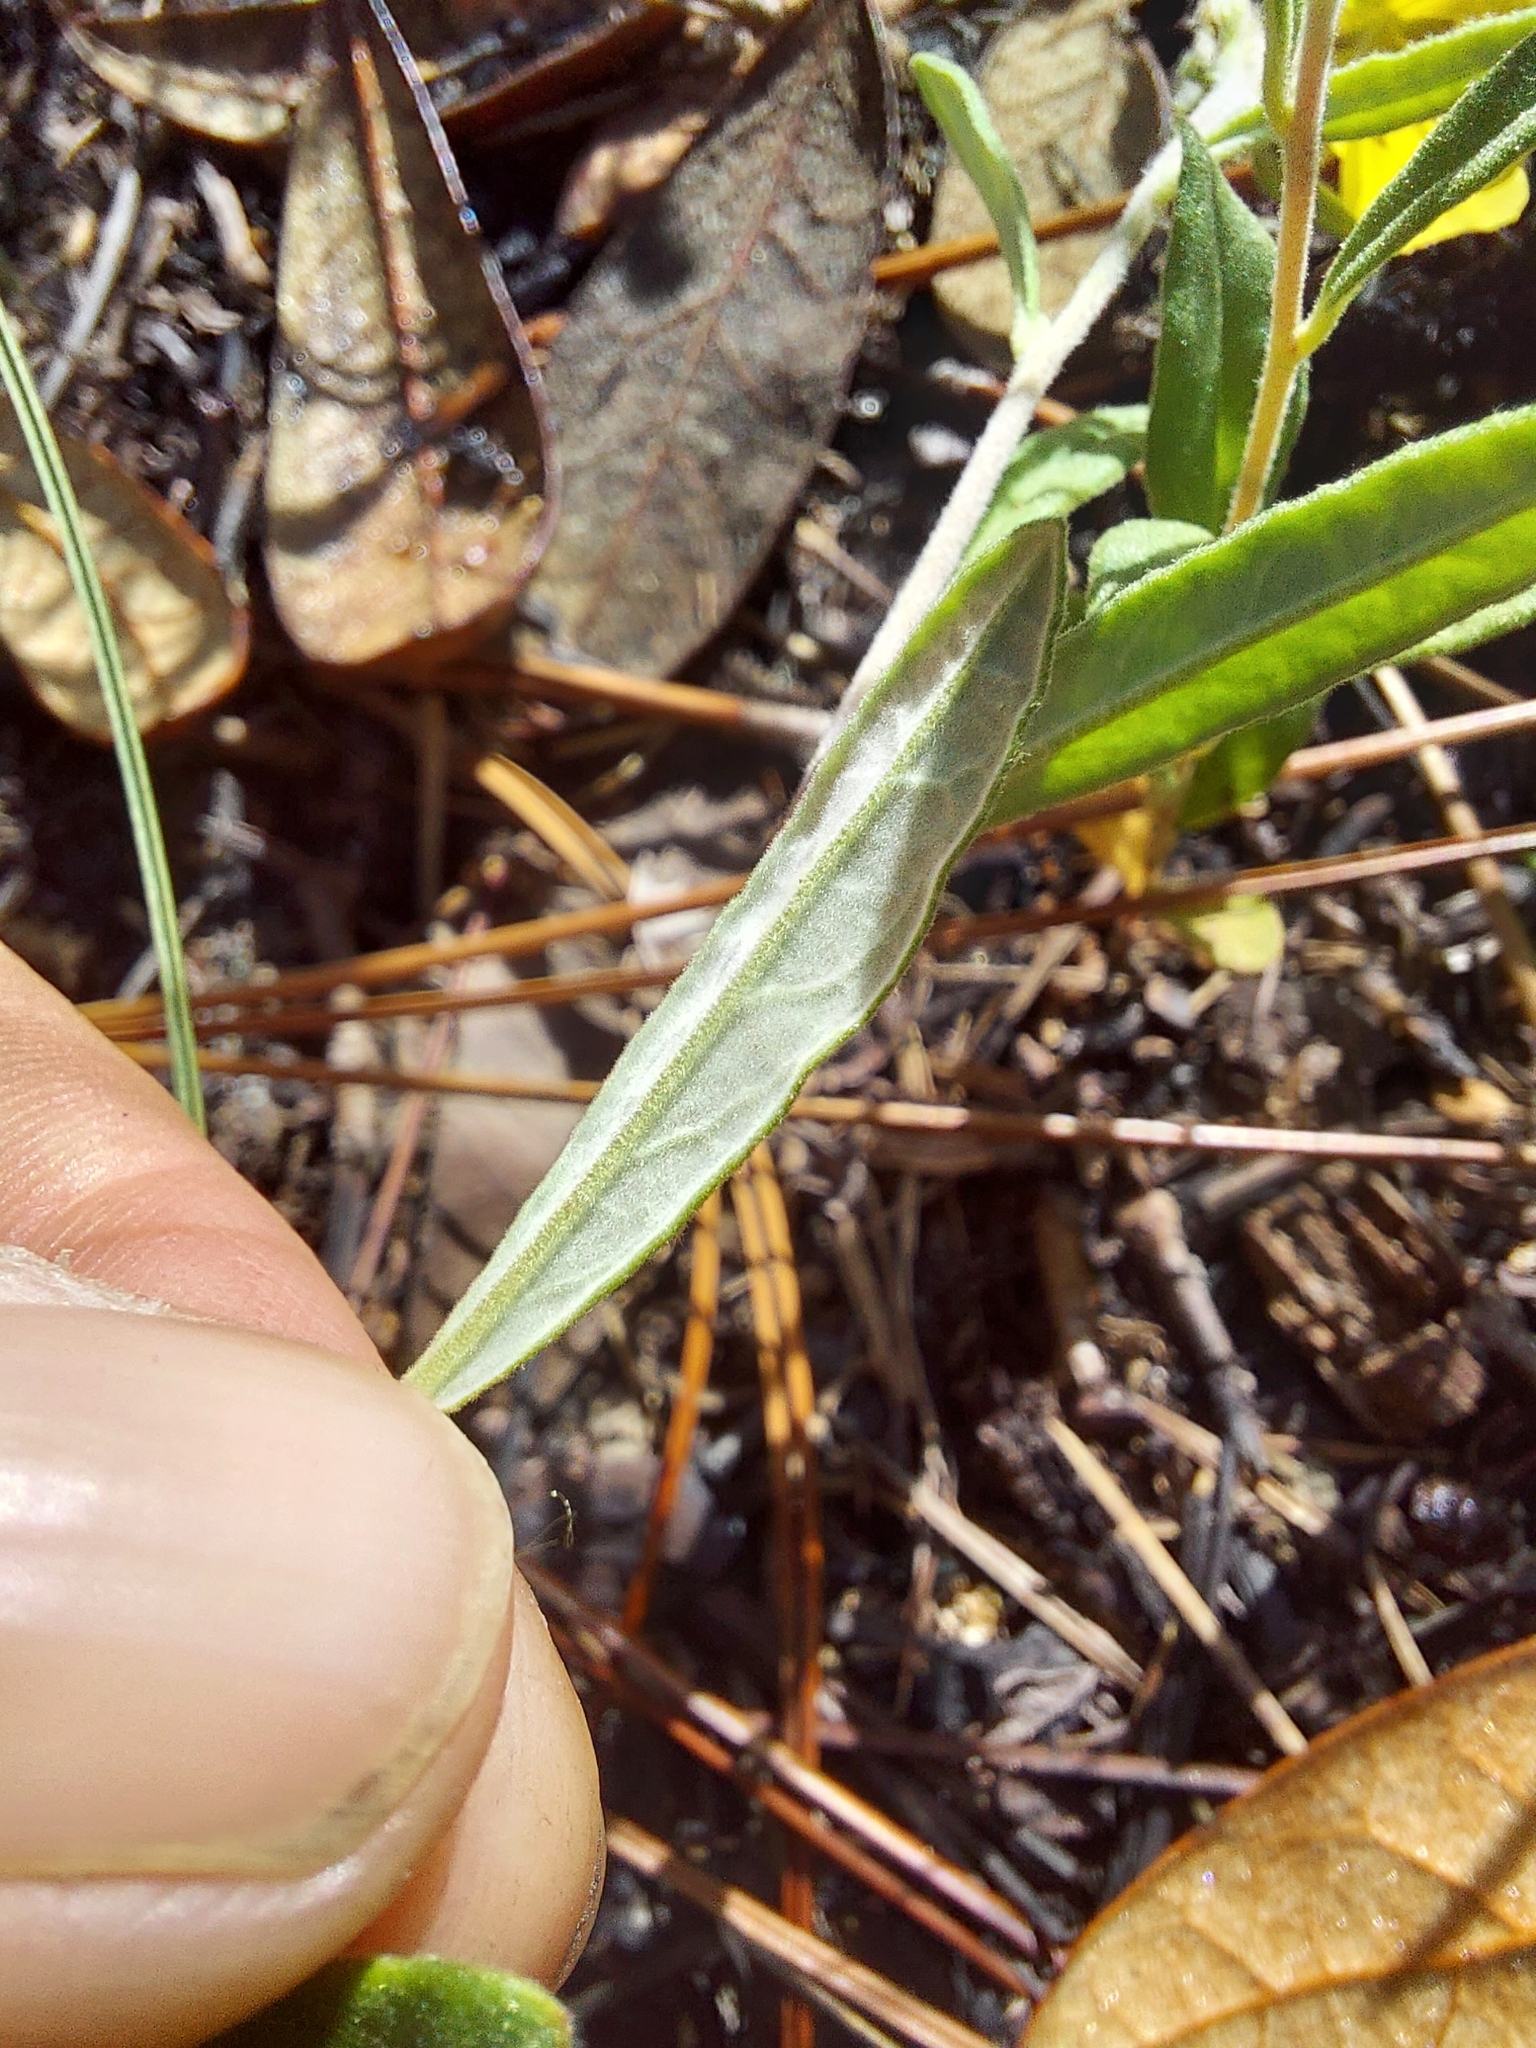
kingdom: Plantae
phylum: Tracheophyta
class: Magnoliopsida
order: Malvales
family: Cistaceae
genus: Crocanthemum
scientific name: Crocanthemum corymbosum
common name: Pinebarren sun-rose
